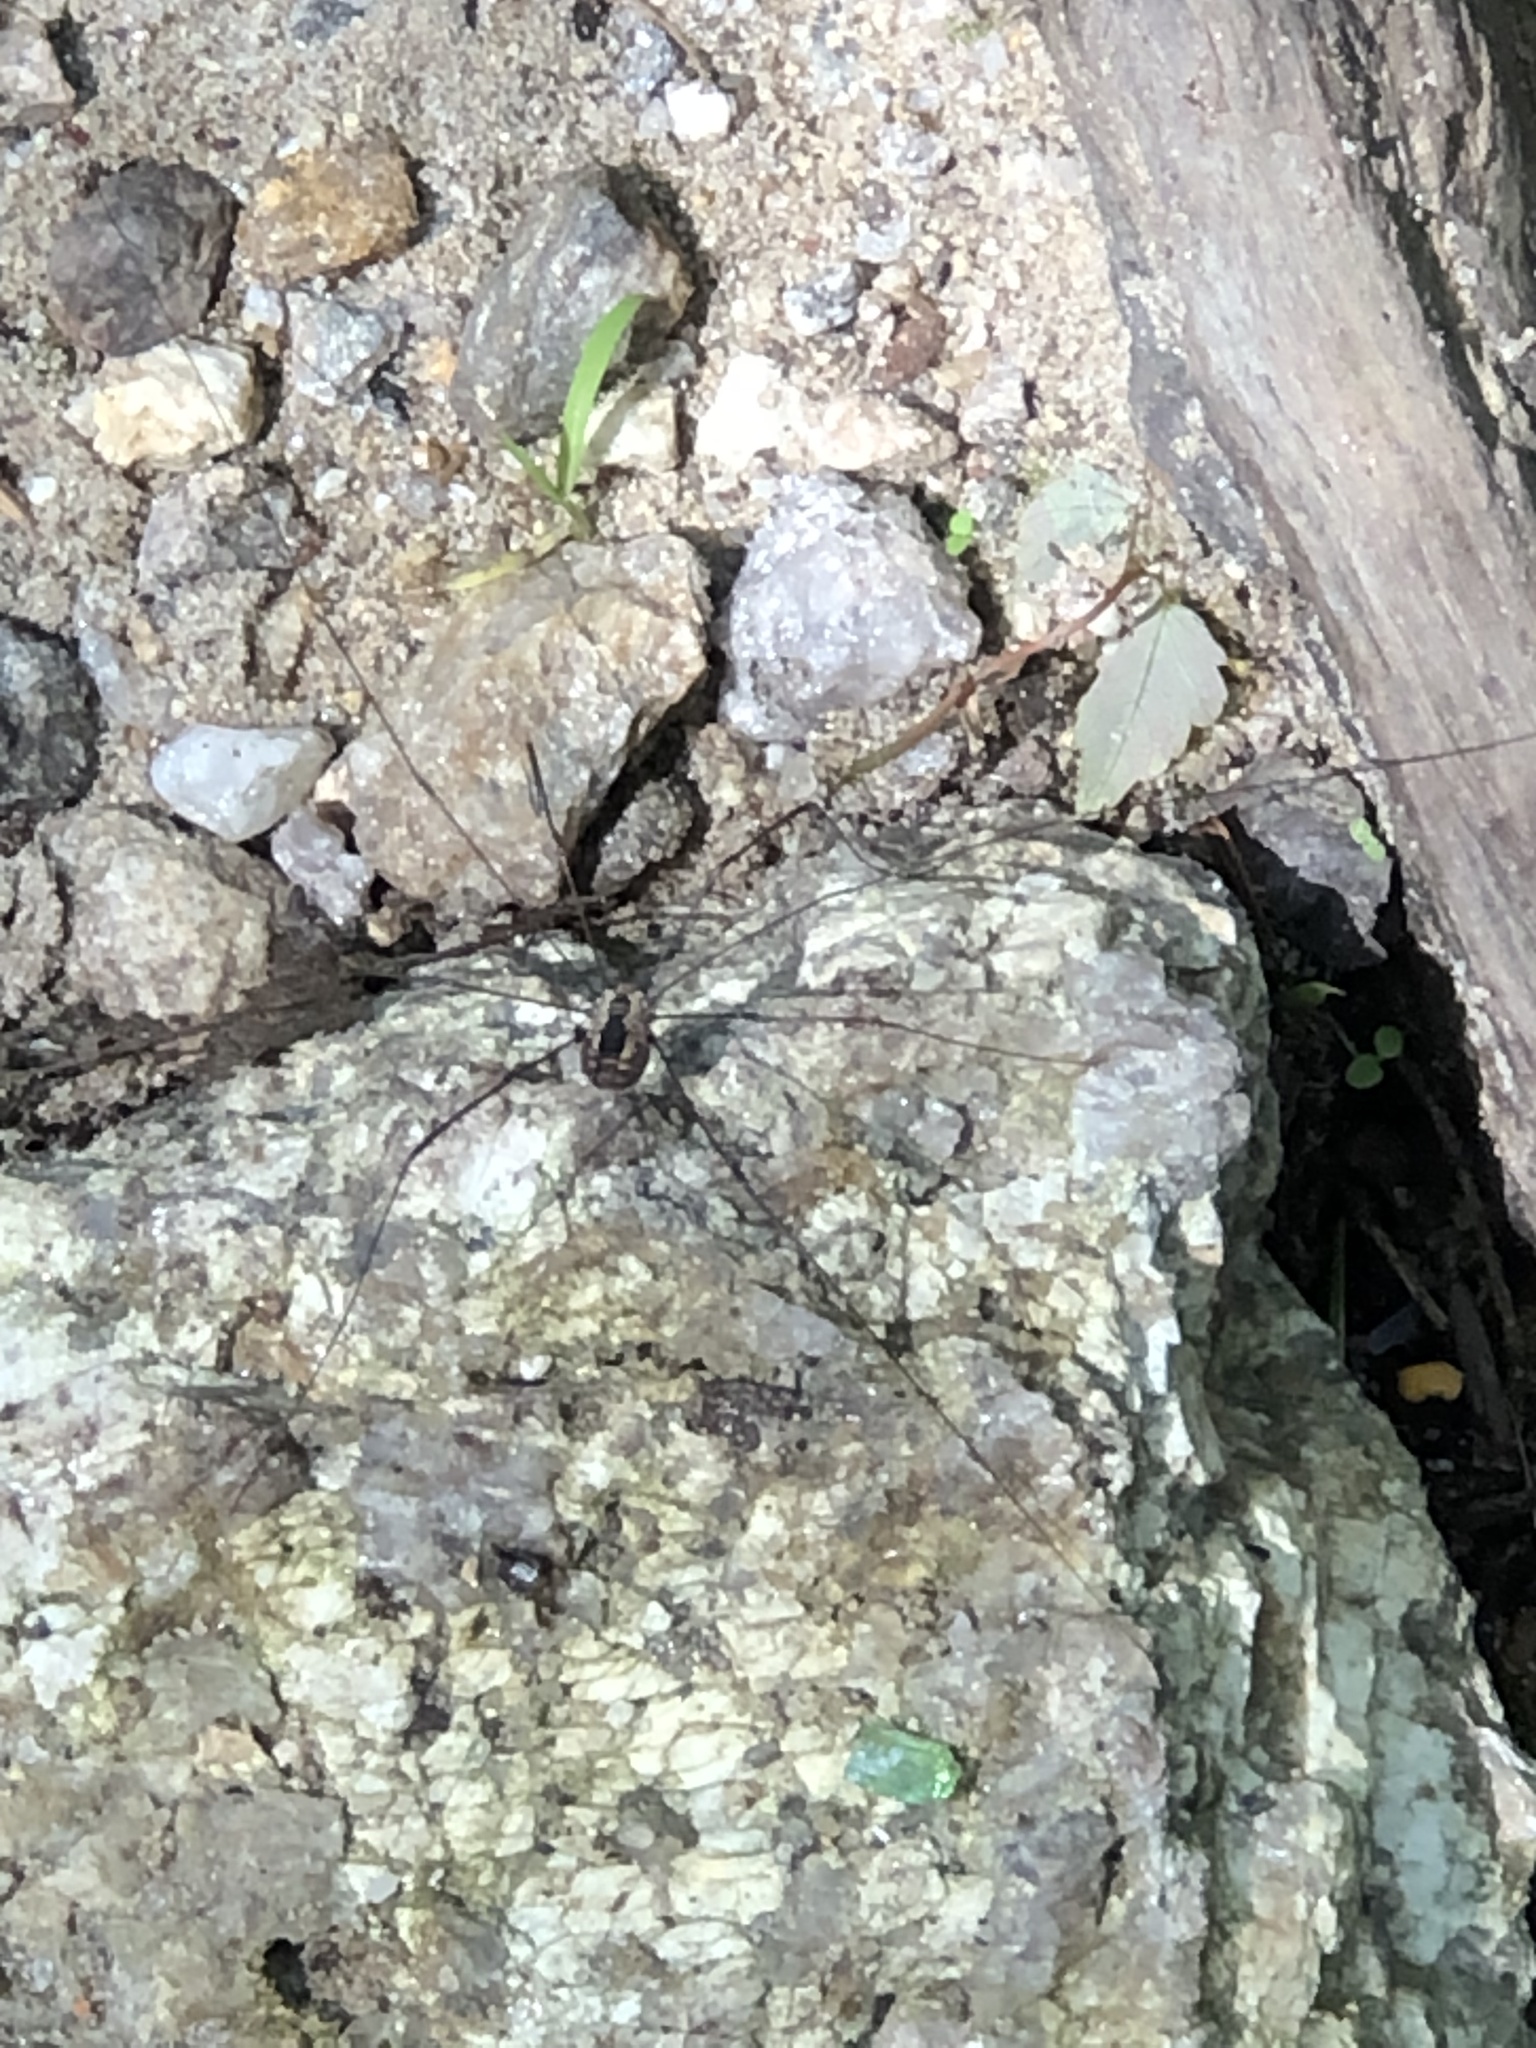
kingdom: Animalia
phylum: Arthropoda
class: Arachnida
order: Opiliones
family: Sclerosomatidae
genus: Leiobunum
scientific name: Leiobunum aldrichi
